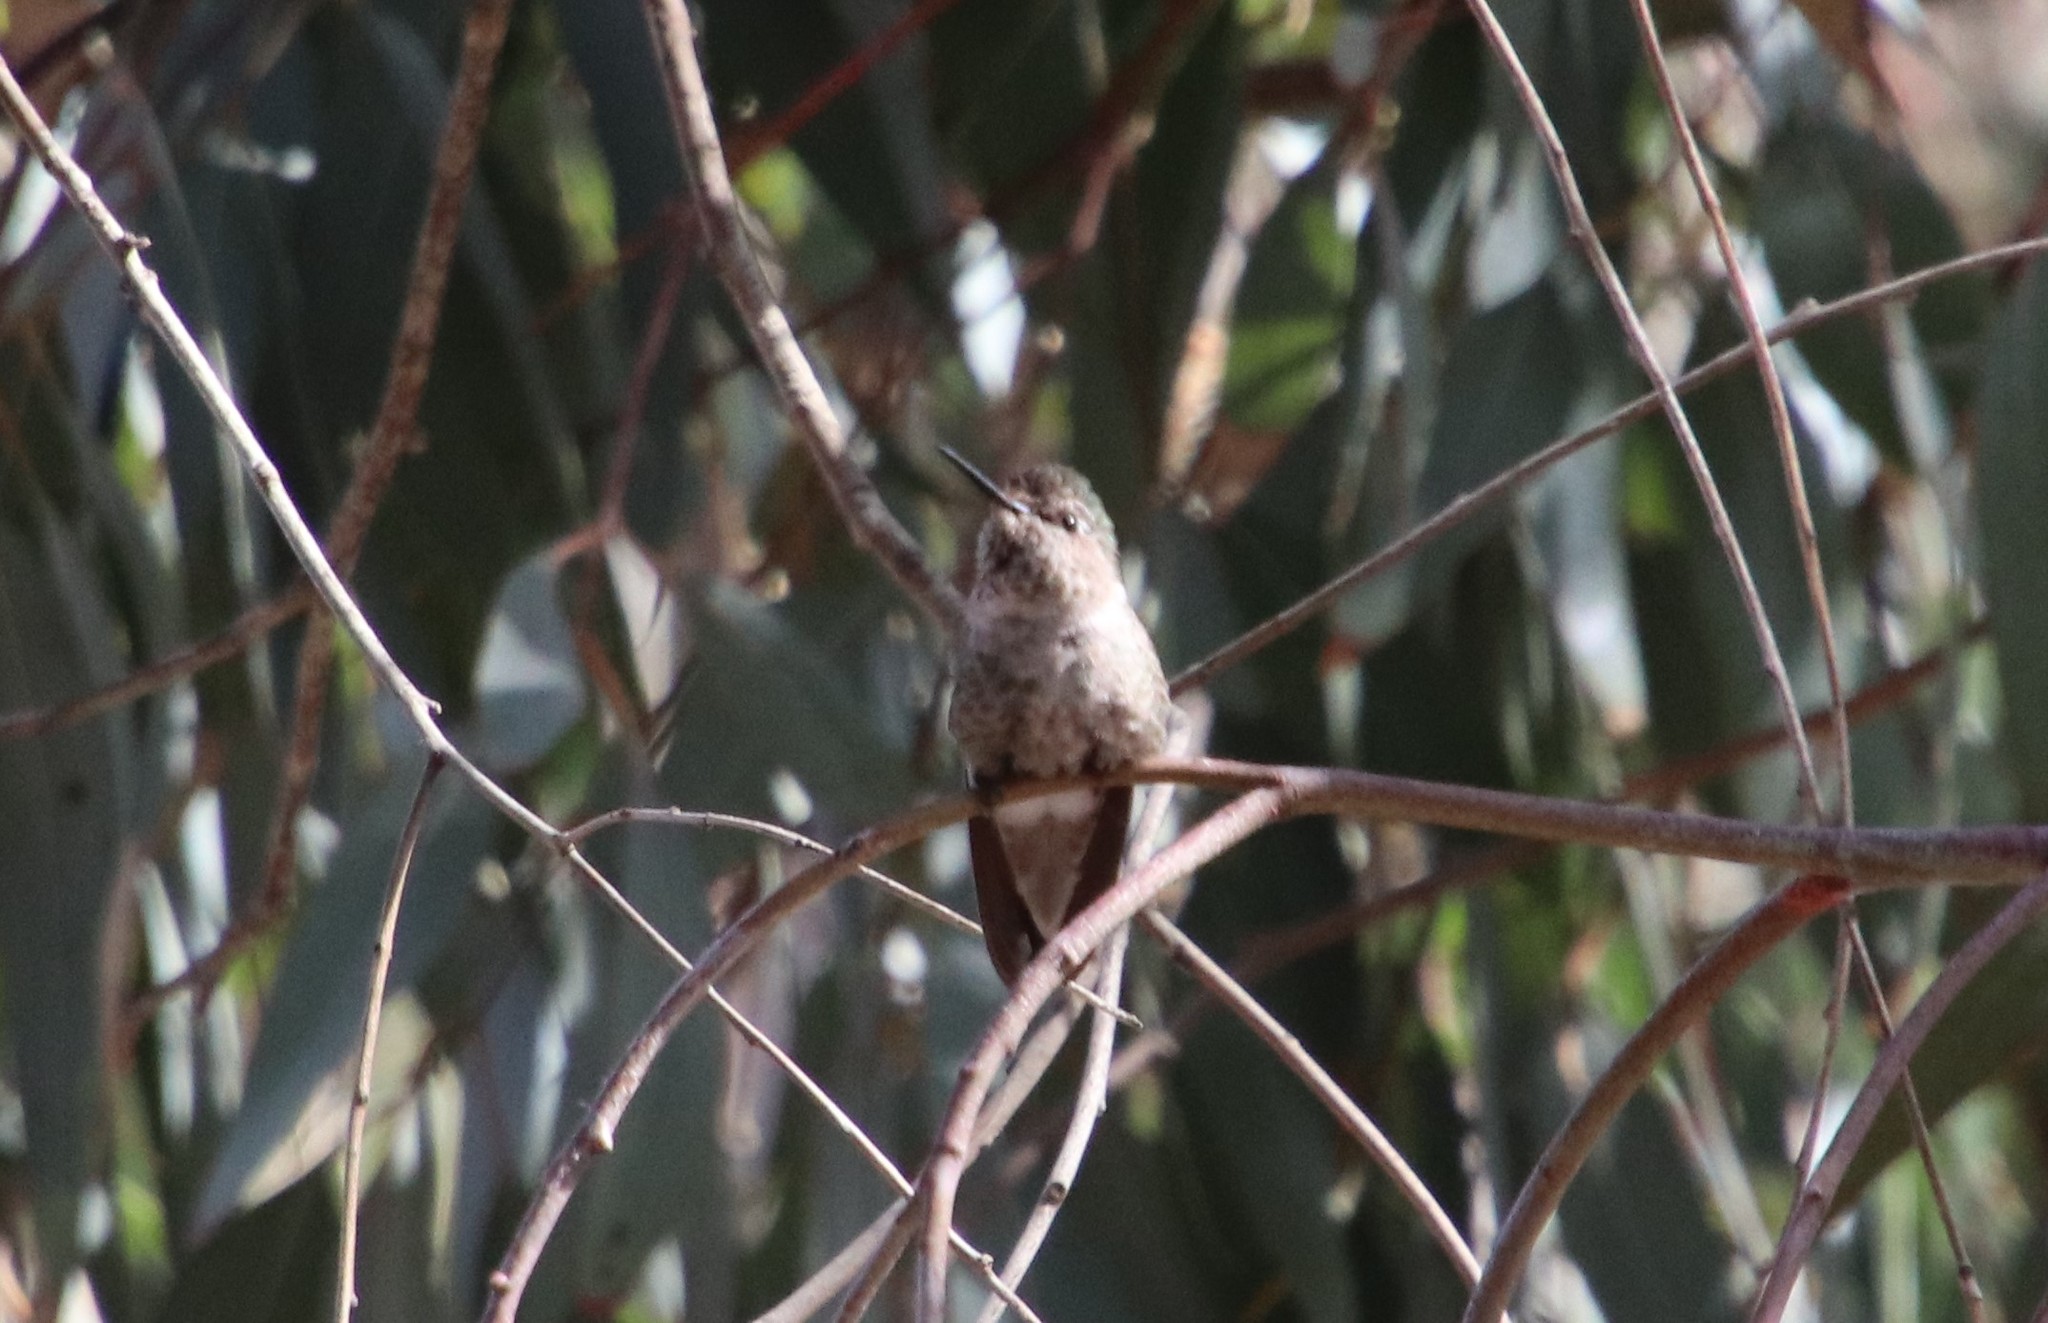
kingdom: Animalia
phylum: Chordata
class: Aves
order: Apodiformes
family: Trochilidae
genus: Calypte
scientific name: Calypte anna
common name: Anna's hummingbird
